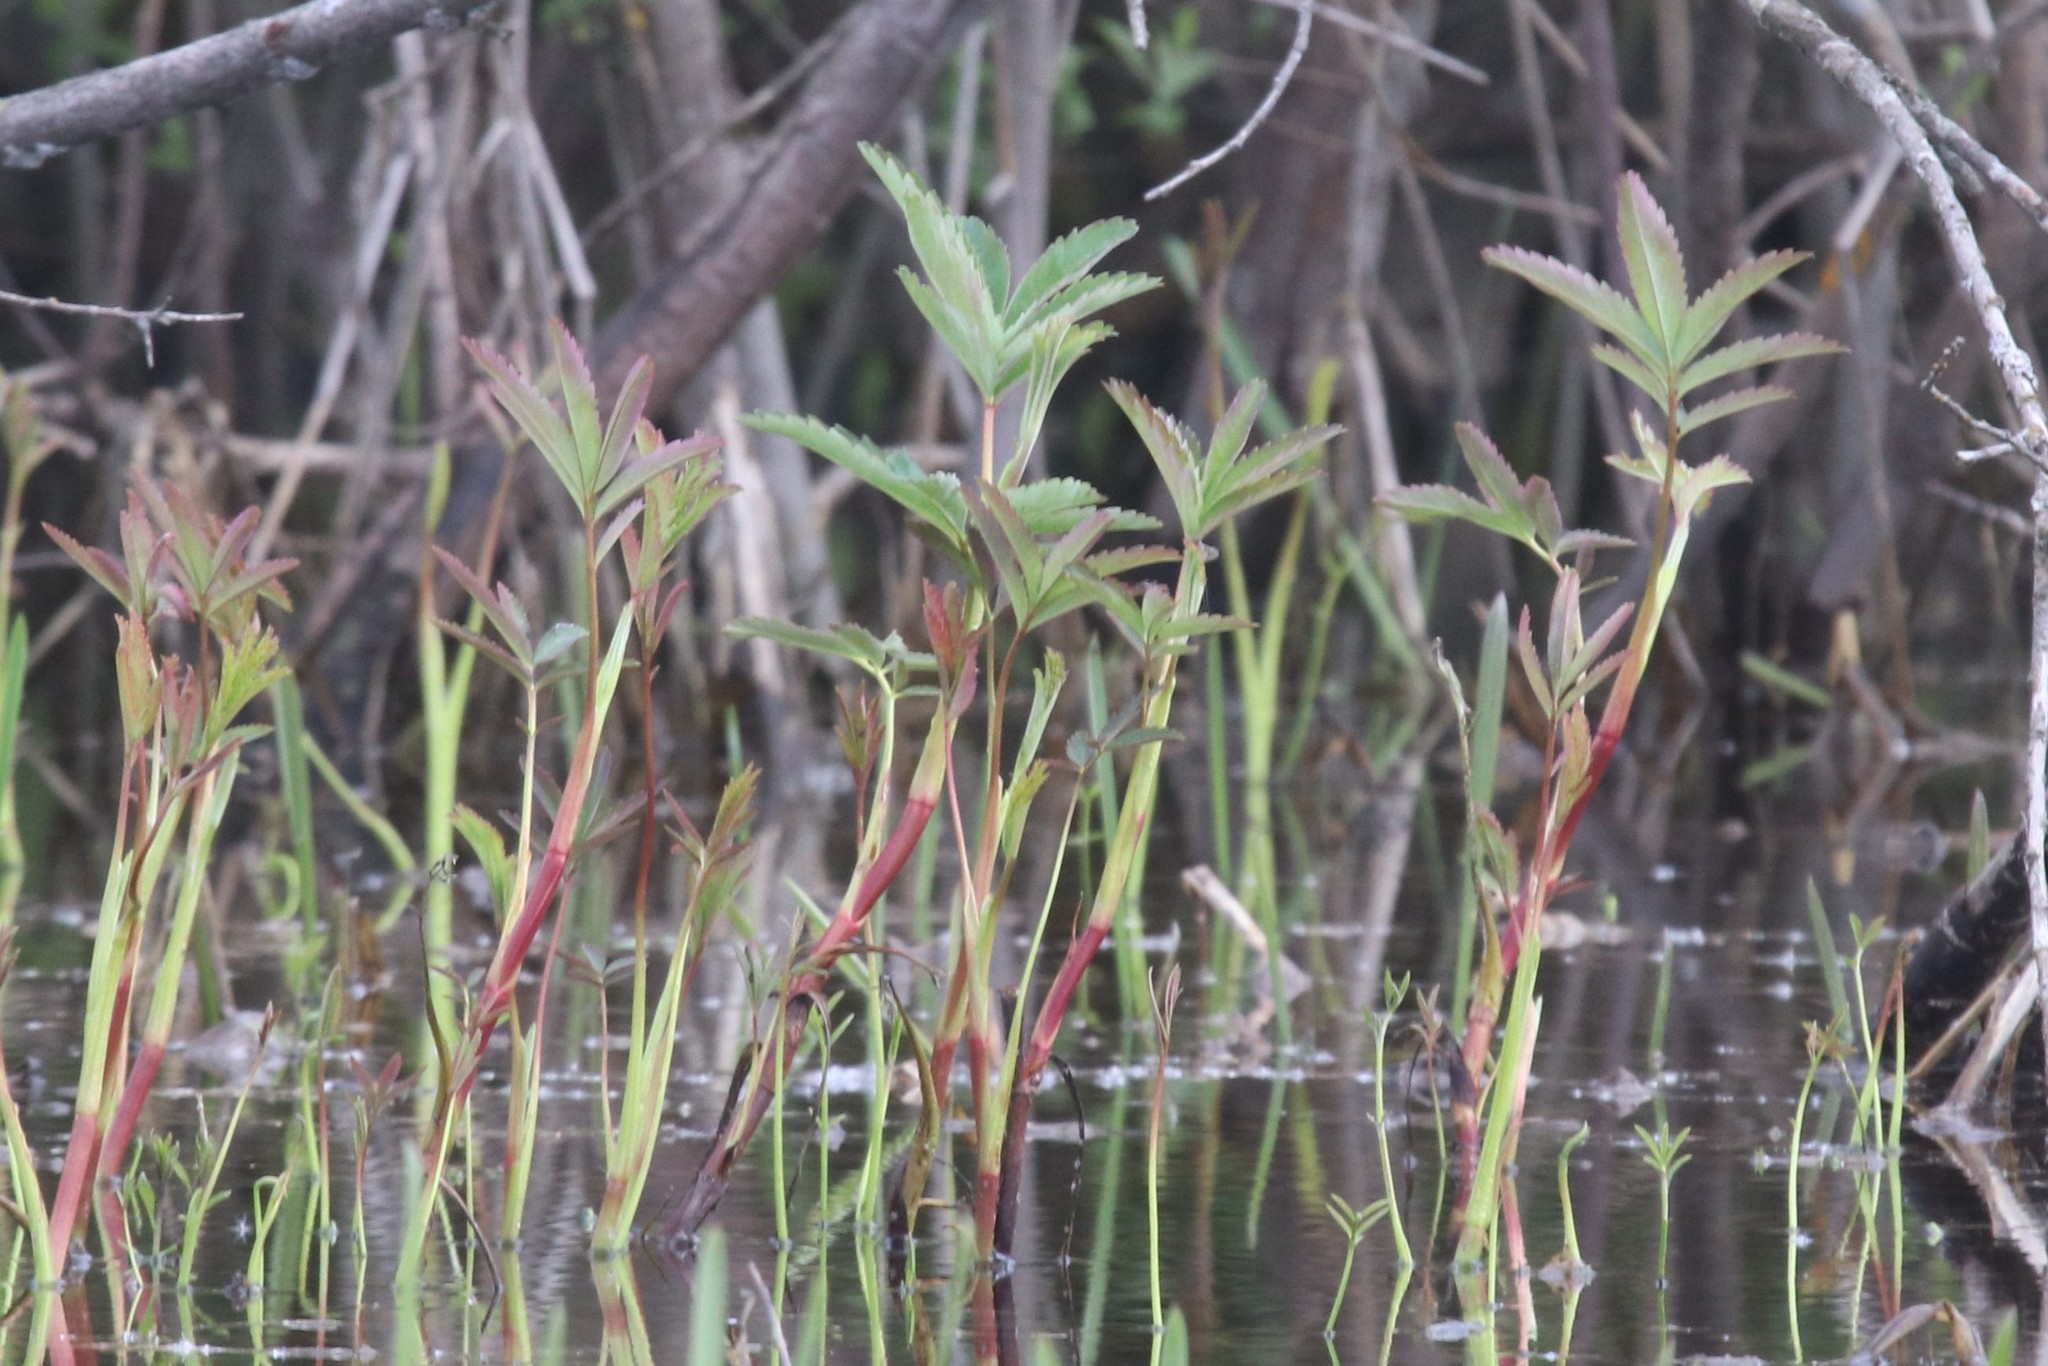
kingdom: Plantae
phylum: Tracheophyta
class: Magnoliopsida
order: Rosales
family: Rosaceae
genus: Comarum
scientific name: Comarum palustre
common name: Marsh cinquefoil
